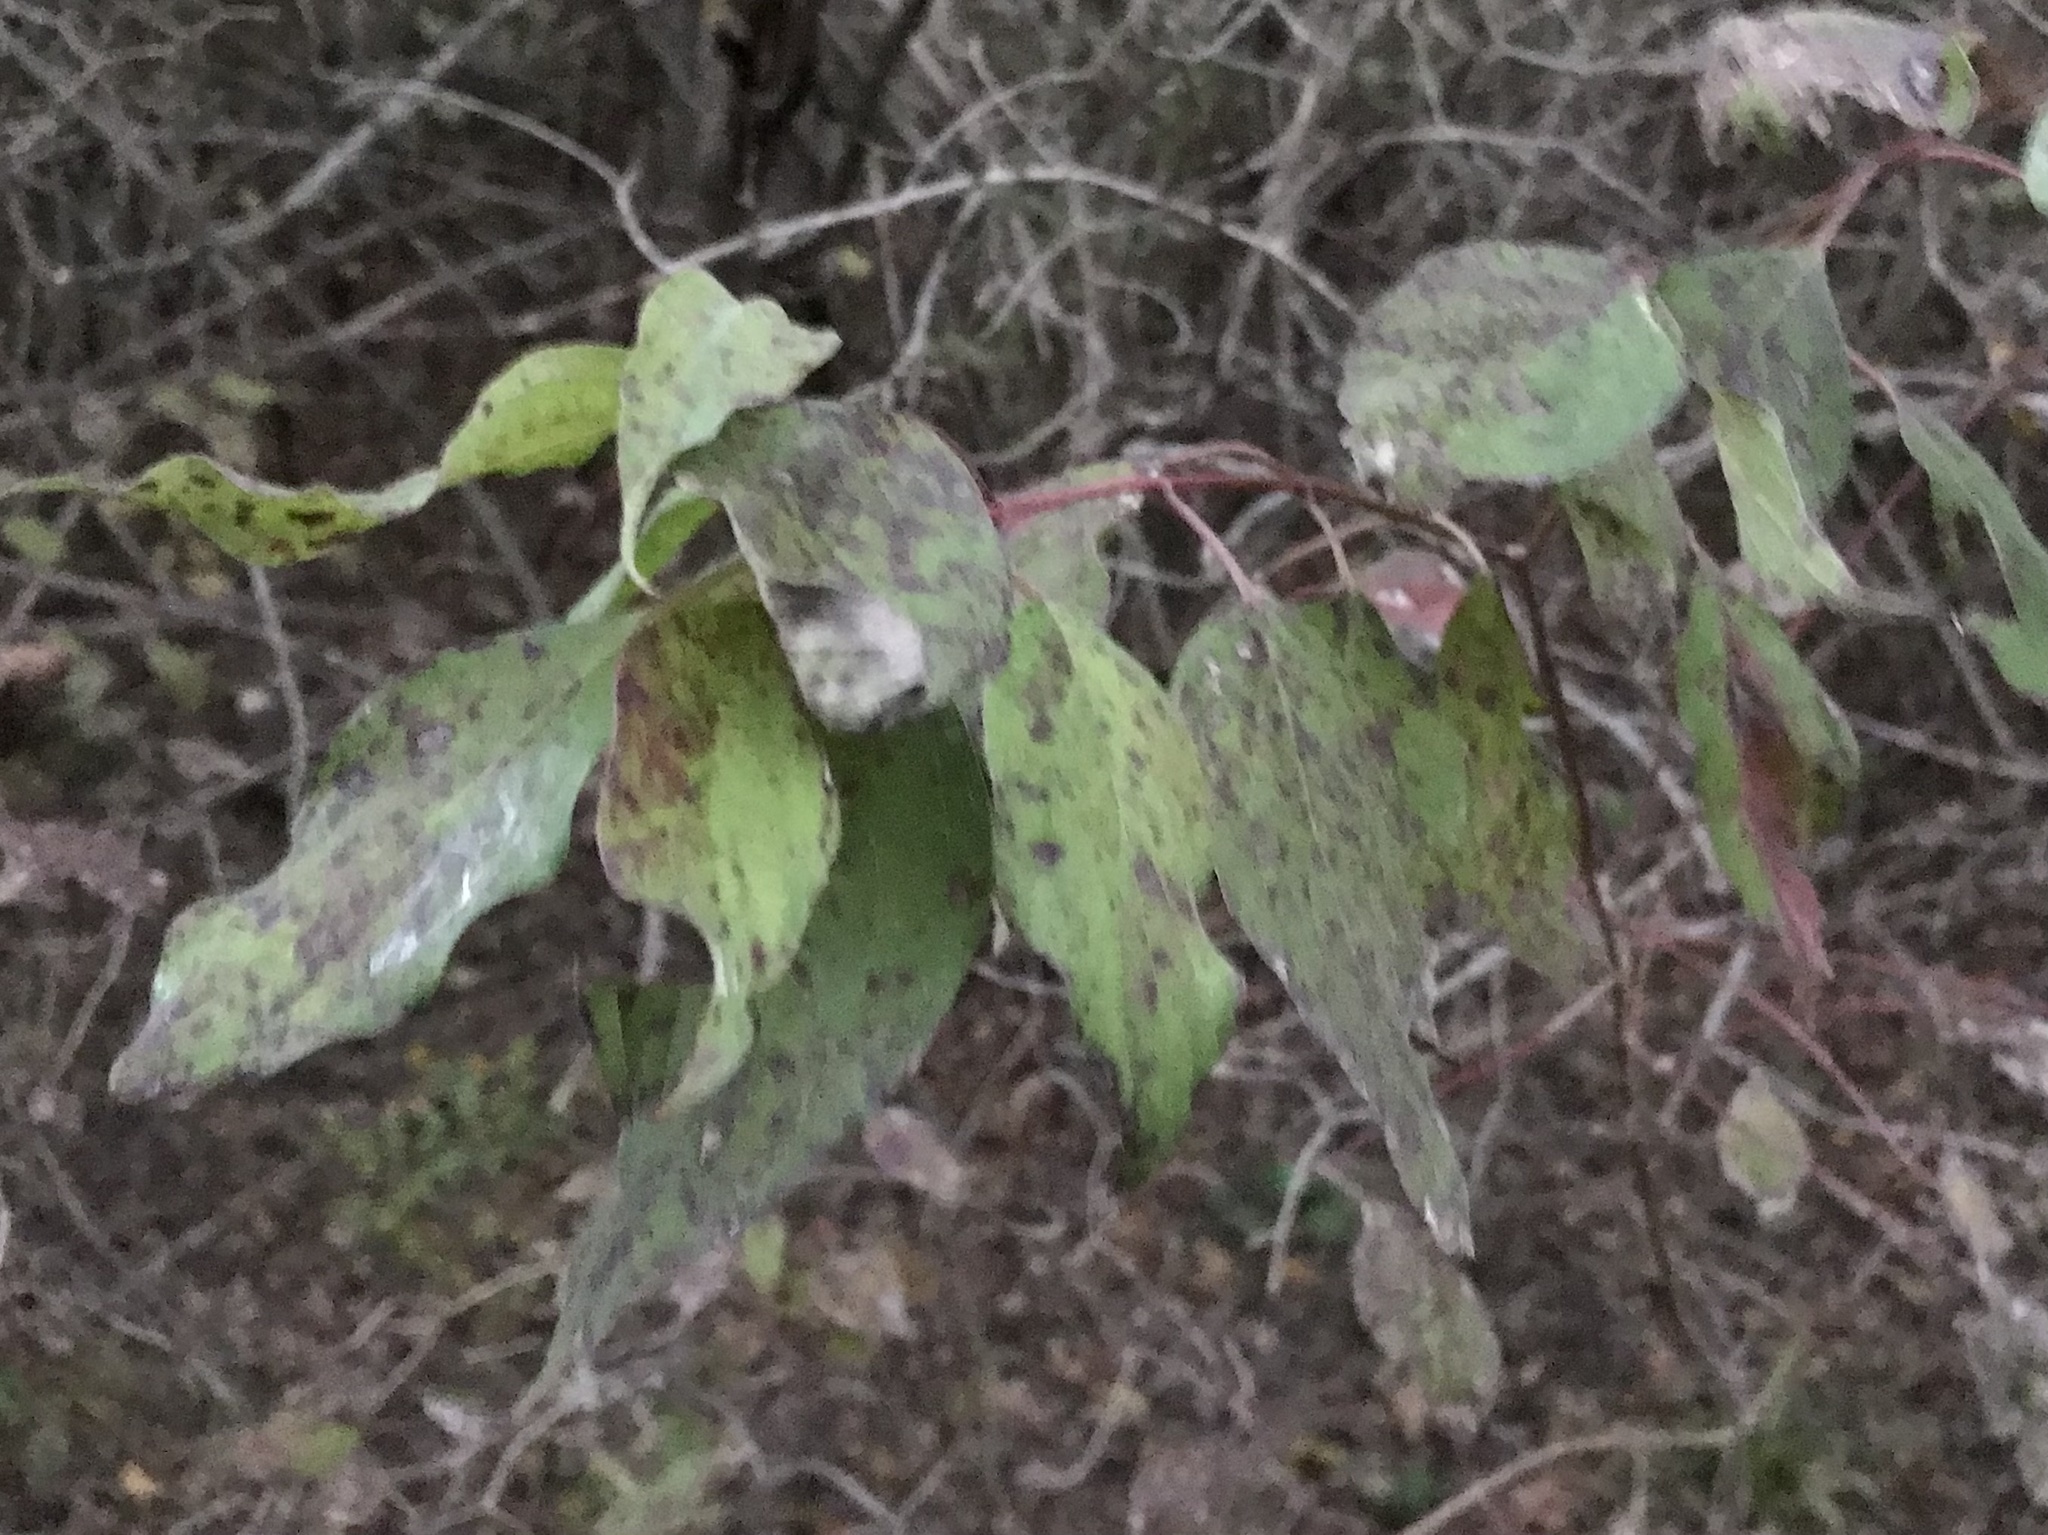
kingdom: Plantae
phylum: Tracheophyta
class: Magnoliopsida
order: Cornales
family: Cornaceae
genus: Cornus
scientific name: Cornus drummondii
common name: Rough-leaf dogwood
